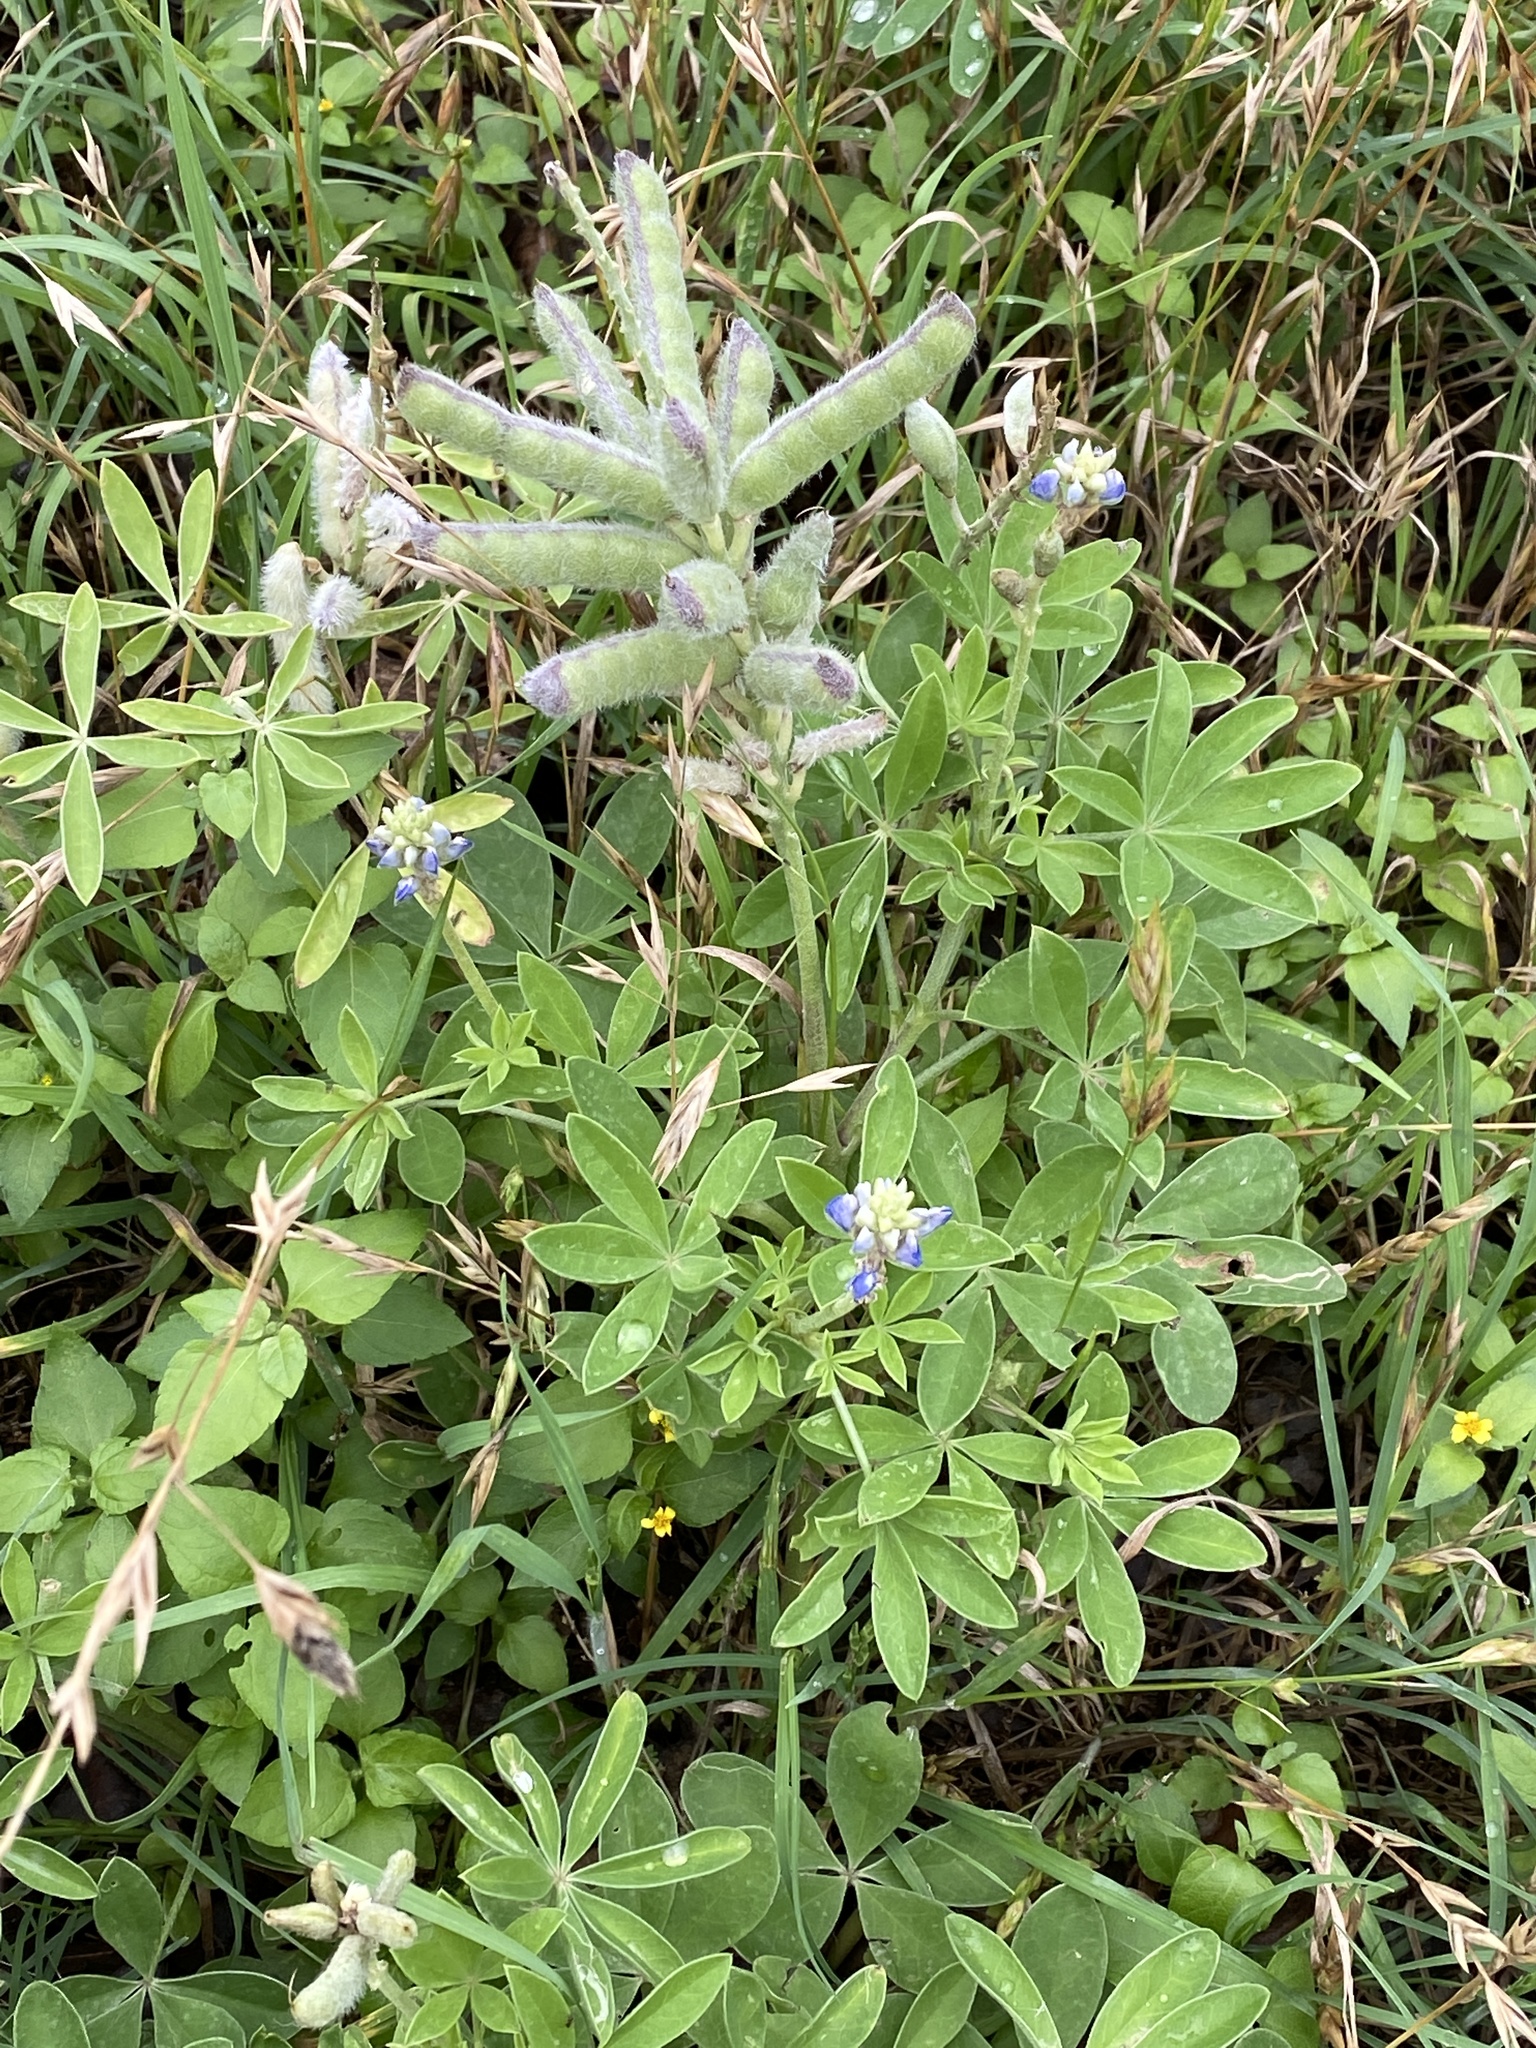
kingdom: Plantae
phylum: Tracheophyta
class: Magnoliopsida
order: Fabales
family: Fabaceae
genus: Lupinus
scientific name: Lupinus texensis
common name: Texas bluebonnet
